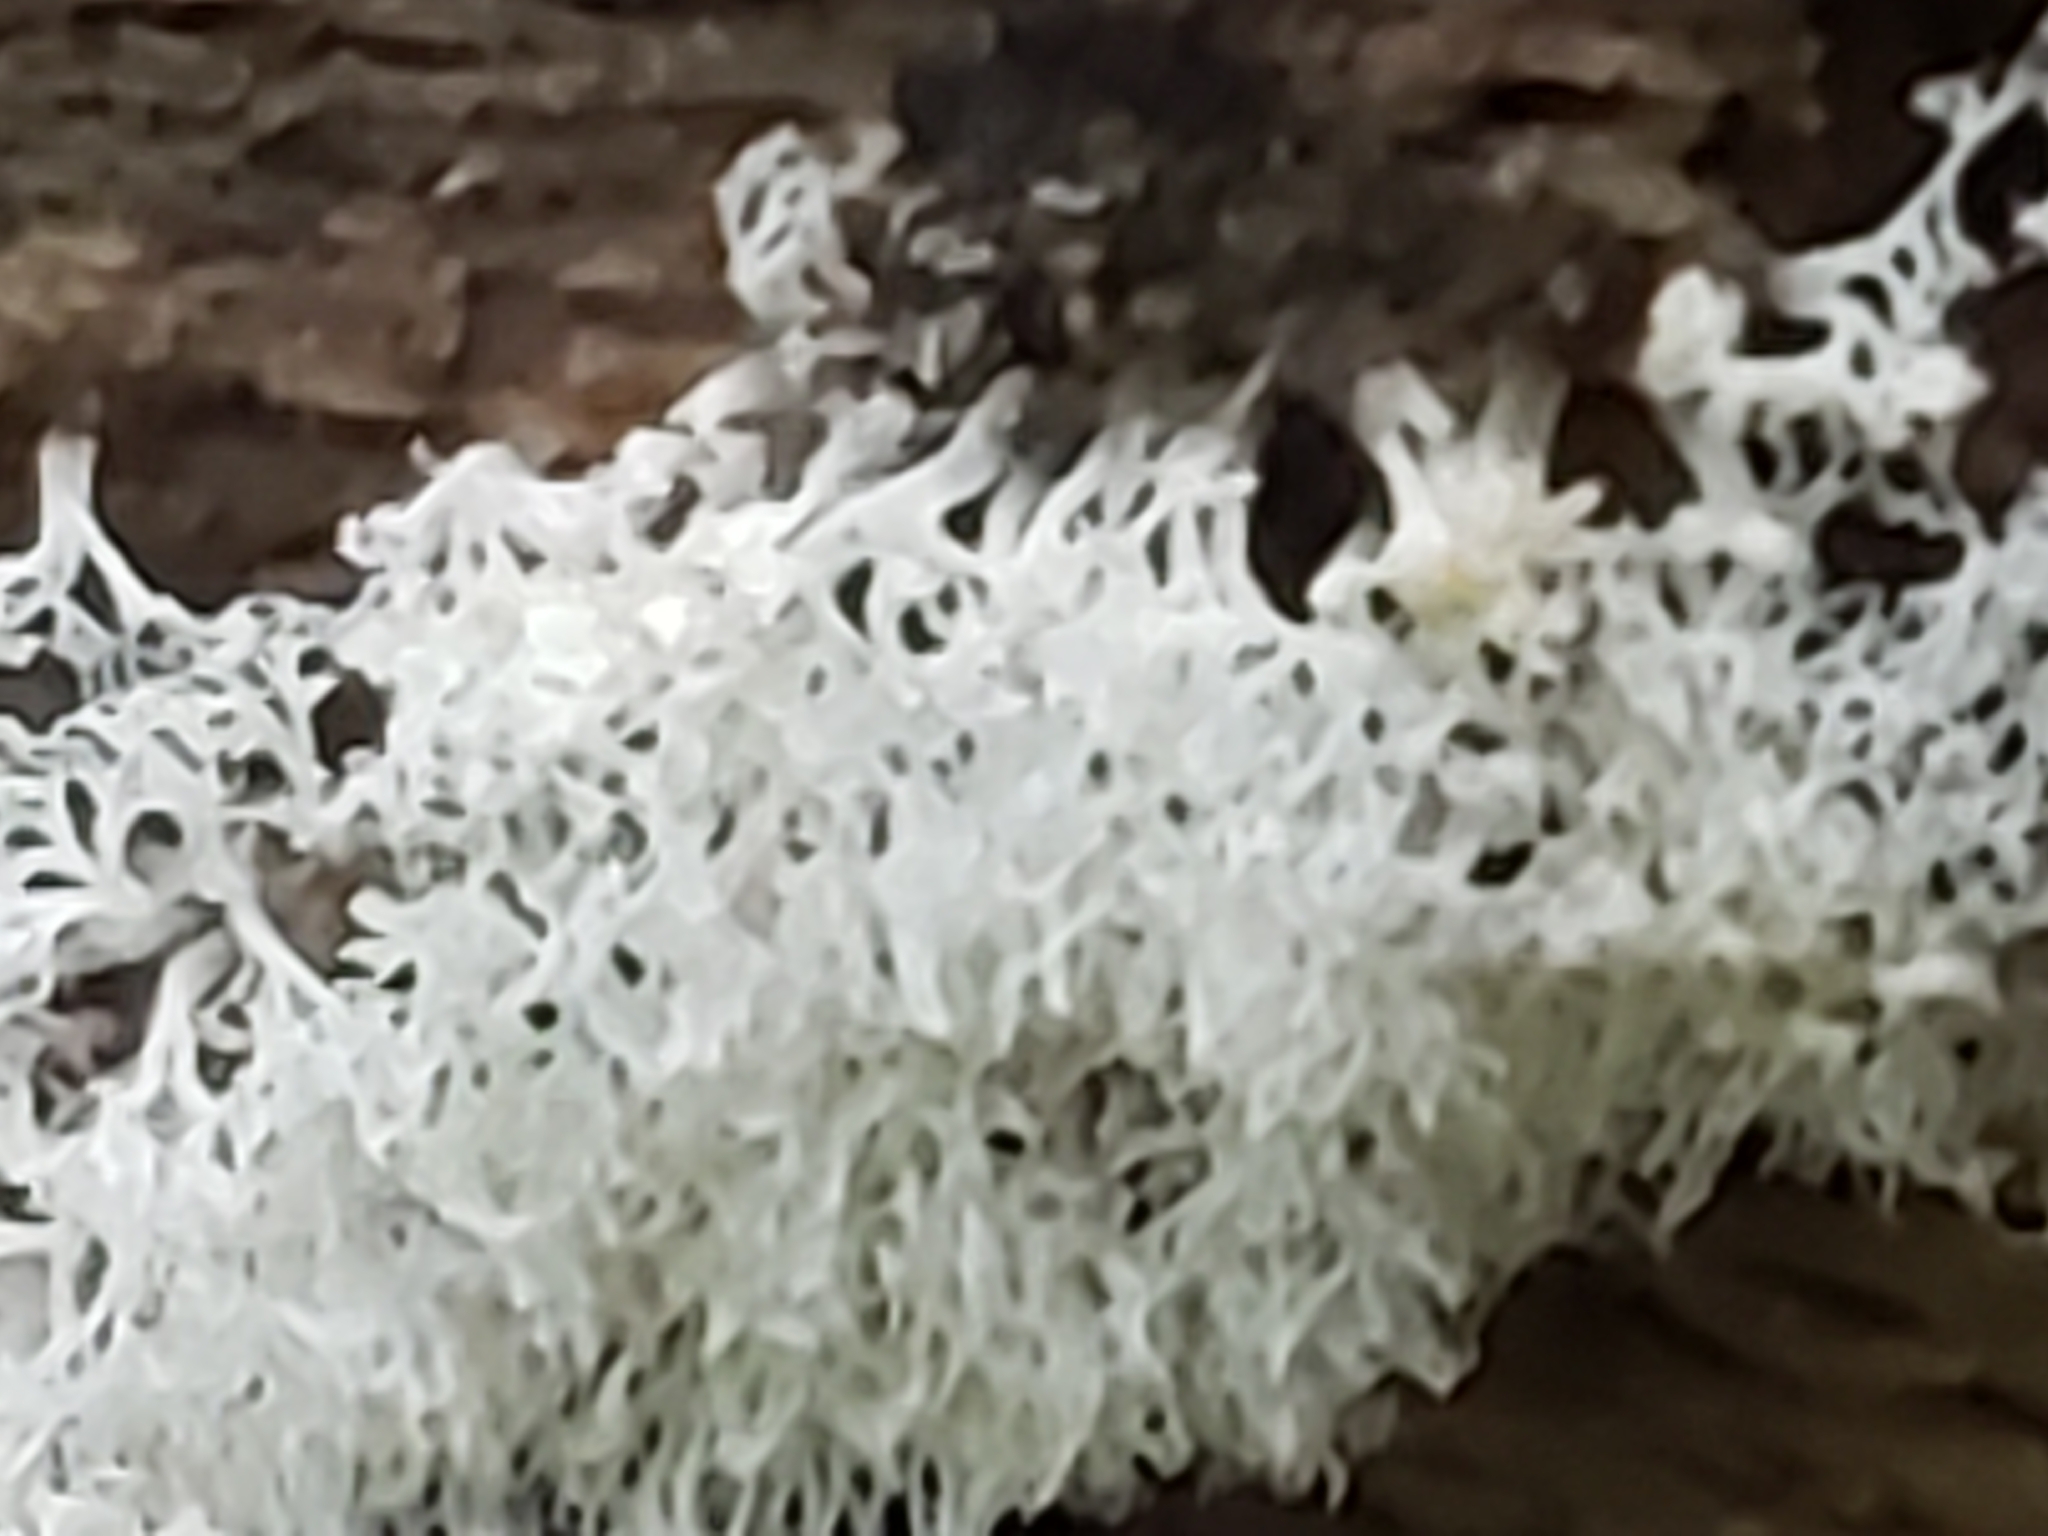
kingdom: Protozoa
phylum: Mycetozoa
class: Protosteliomycetes
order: Ceratiomyxales
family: Ceratiomyxaceae
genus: Ceratiomyxa
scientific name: Ceratiomyxa fruticulosa
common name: Honeycomb coral slime mold
